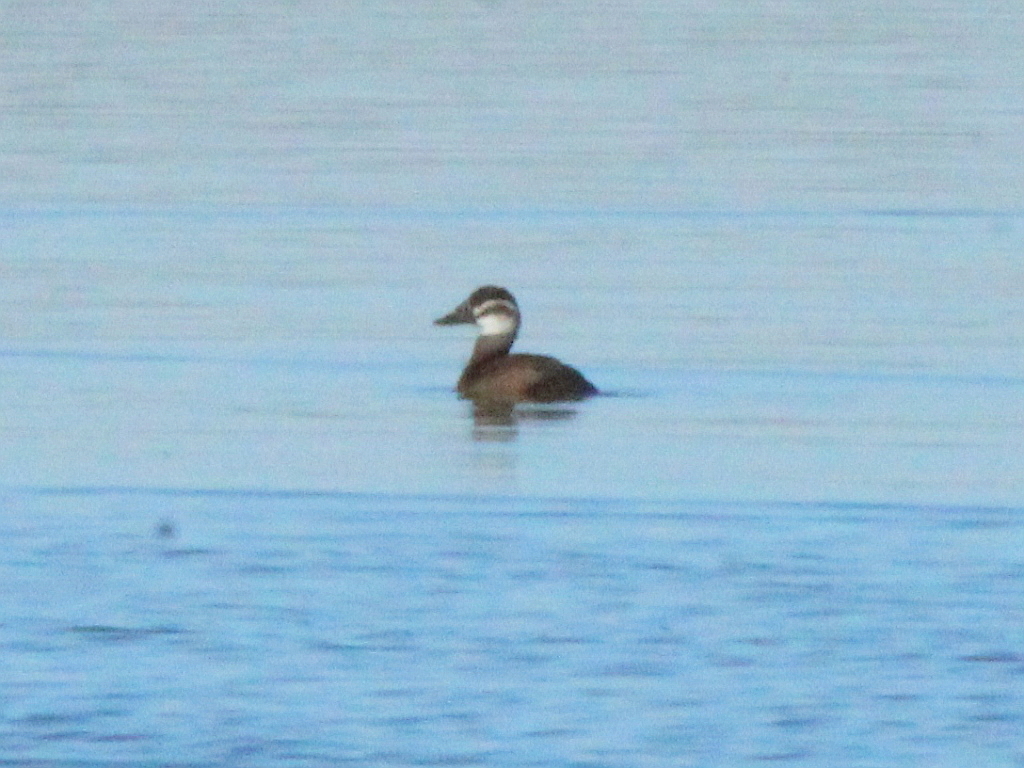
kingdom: Animalia
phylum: Chordata
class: Aves
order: Anseriformes
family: Anatidae
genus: Oxyura
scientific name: Oxyura leucocephala
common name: White-headed duck
